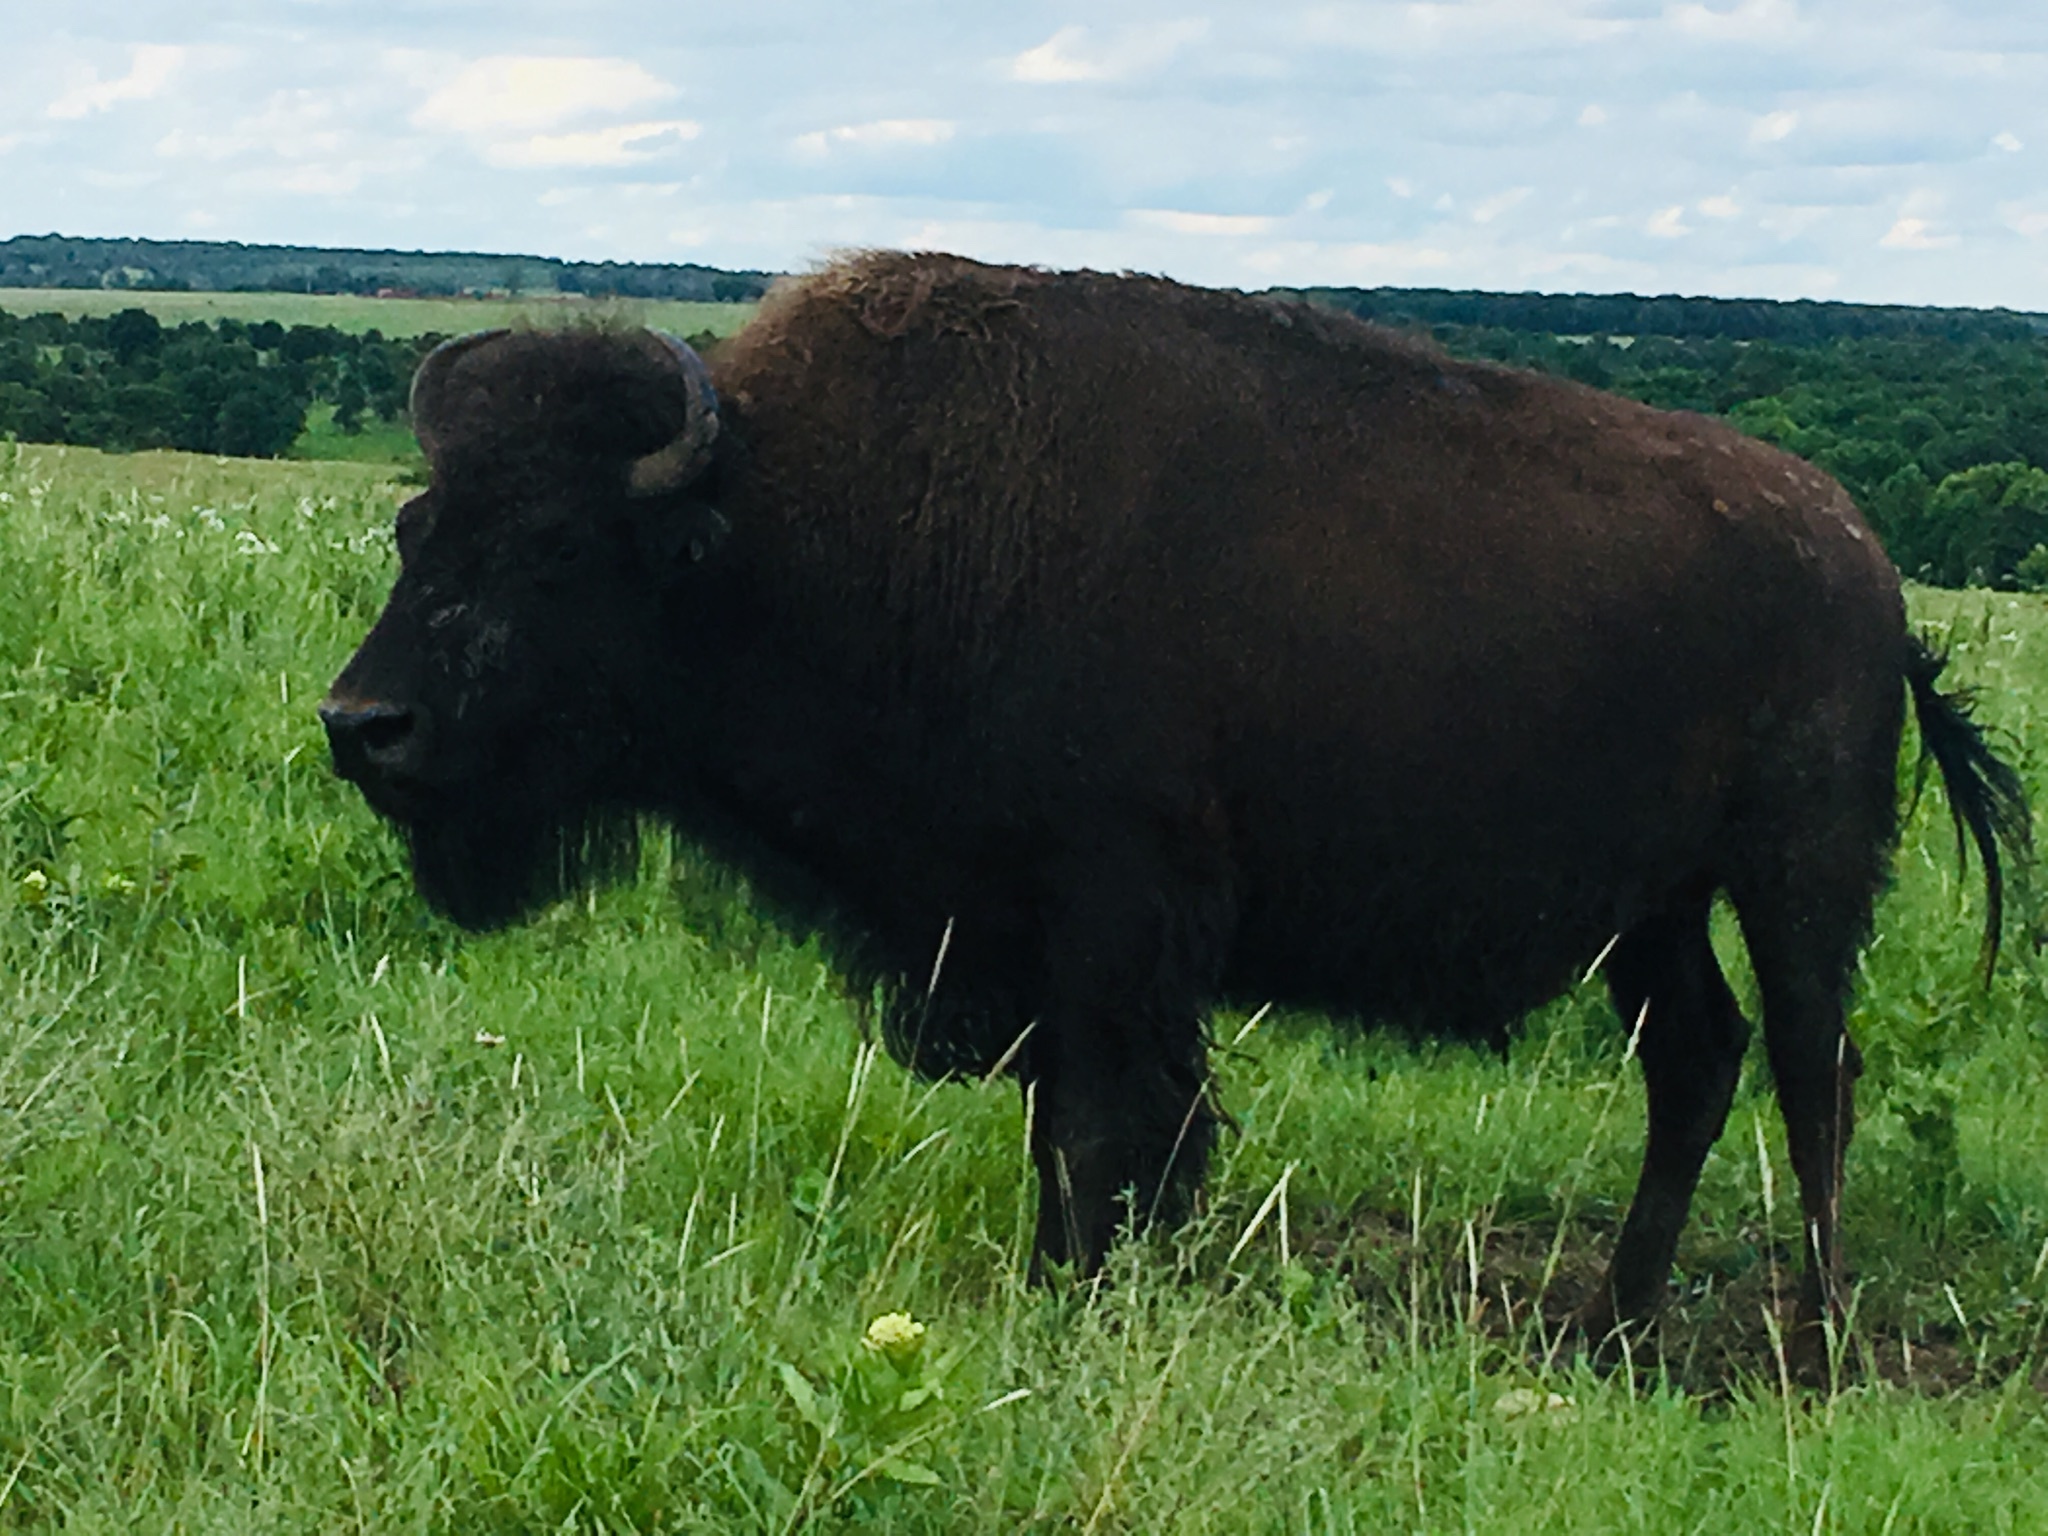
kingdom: Animalia
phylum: Chordata
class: Mammalia
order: Artiodactyla
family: Bovidae
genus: Bison
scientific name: Bison bison
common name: American bison
